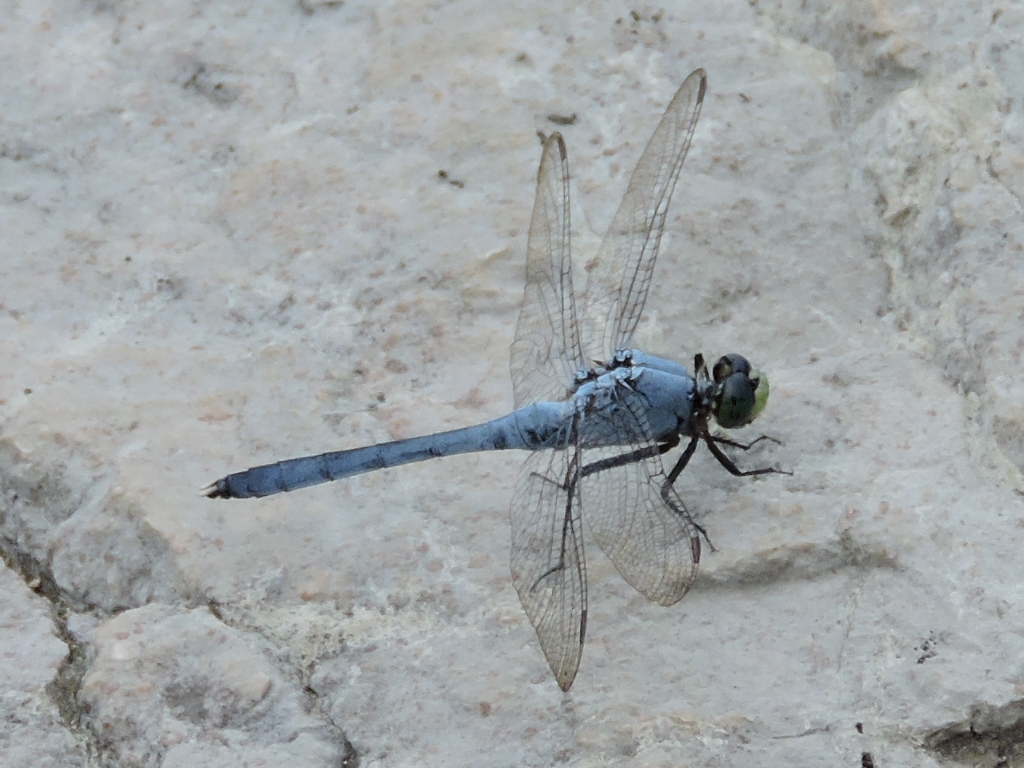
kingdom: Animalia
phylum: Arthropoda
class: Insecta
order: Odonata
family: Libellulidae
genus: Erythemis
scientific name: Erythemis simplicicollis
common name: Eastern pondhawk
